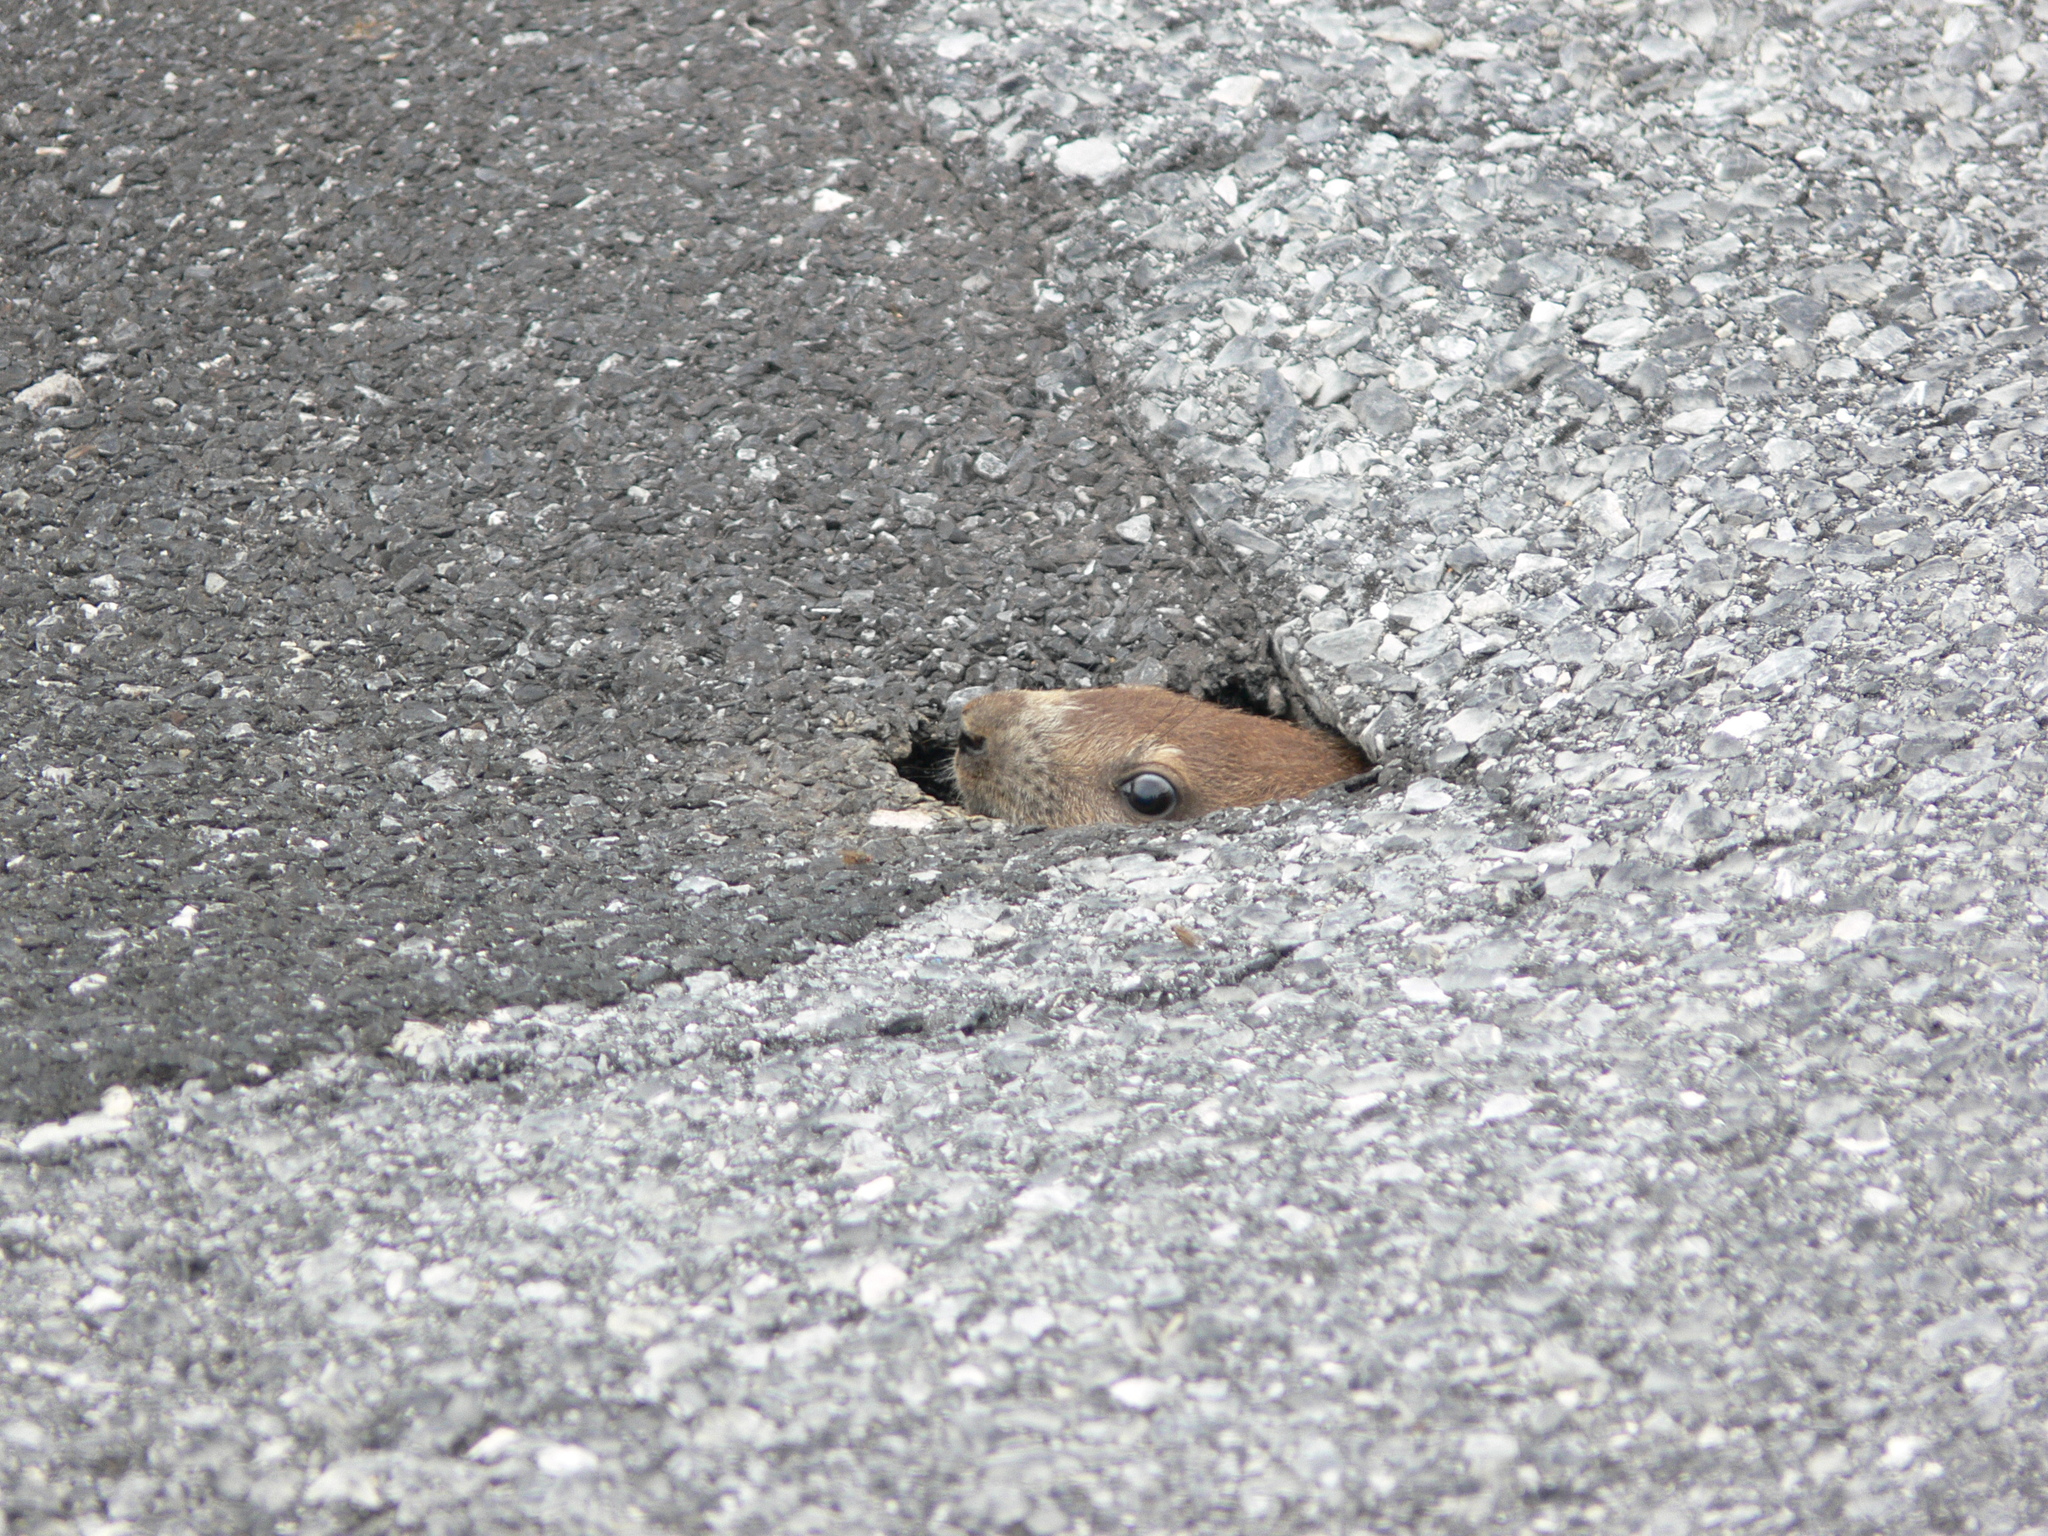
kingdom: Animalia
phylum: Chordata
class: Mammalia
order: Rodentia
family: Sciuridae
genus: Marmota
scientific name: Marmota monax
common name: Groundhog
